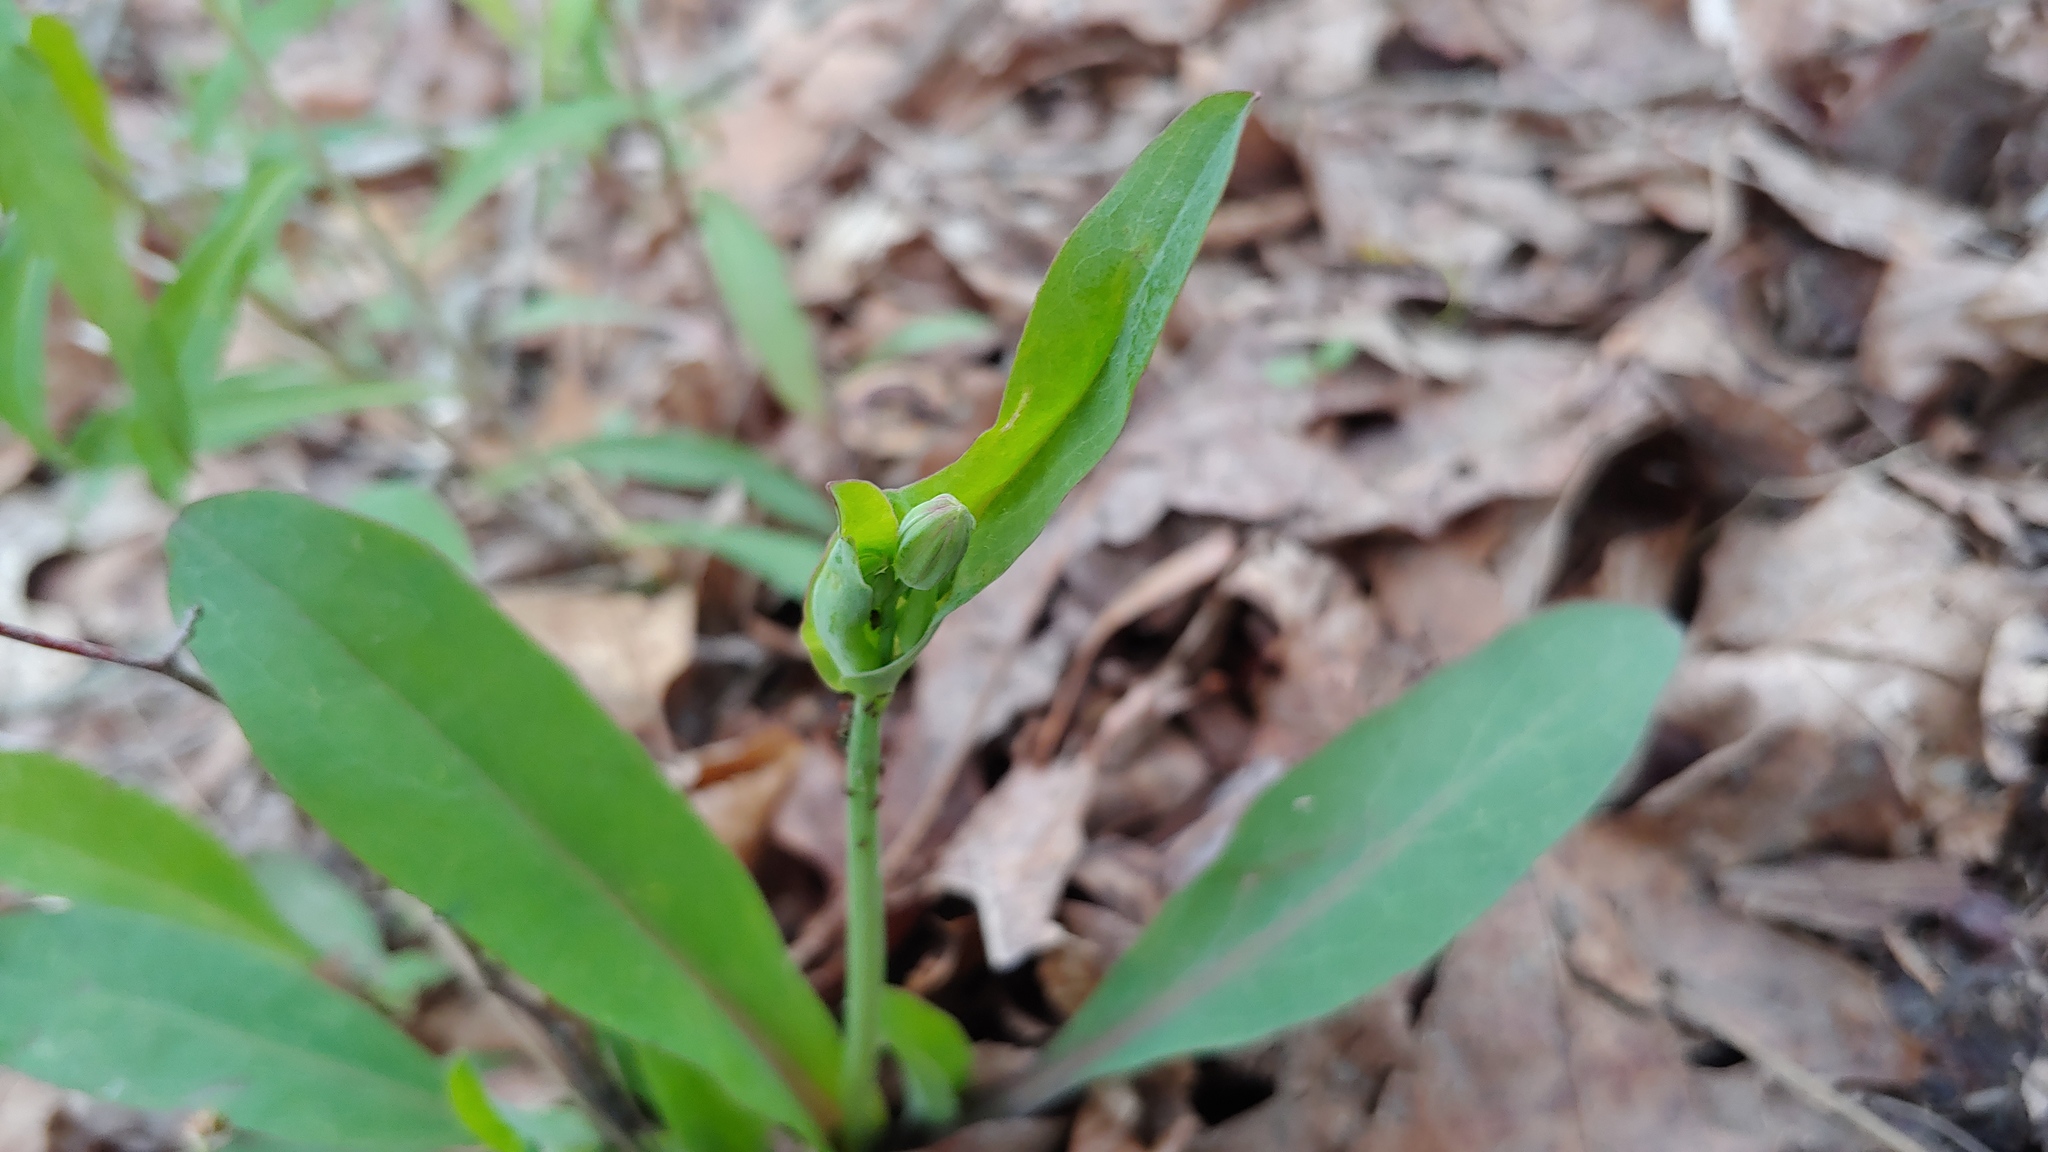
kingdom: Plantae
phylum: Tracheophyta
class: Magnoliopsida
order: Asterales
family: Asteraceae
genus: Krigia
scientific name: Krigia biflora
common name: Orange dwarf-dandelion
